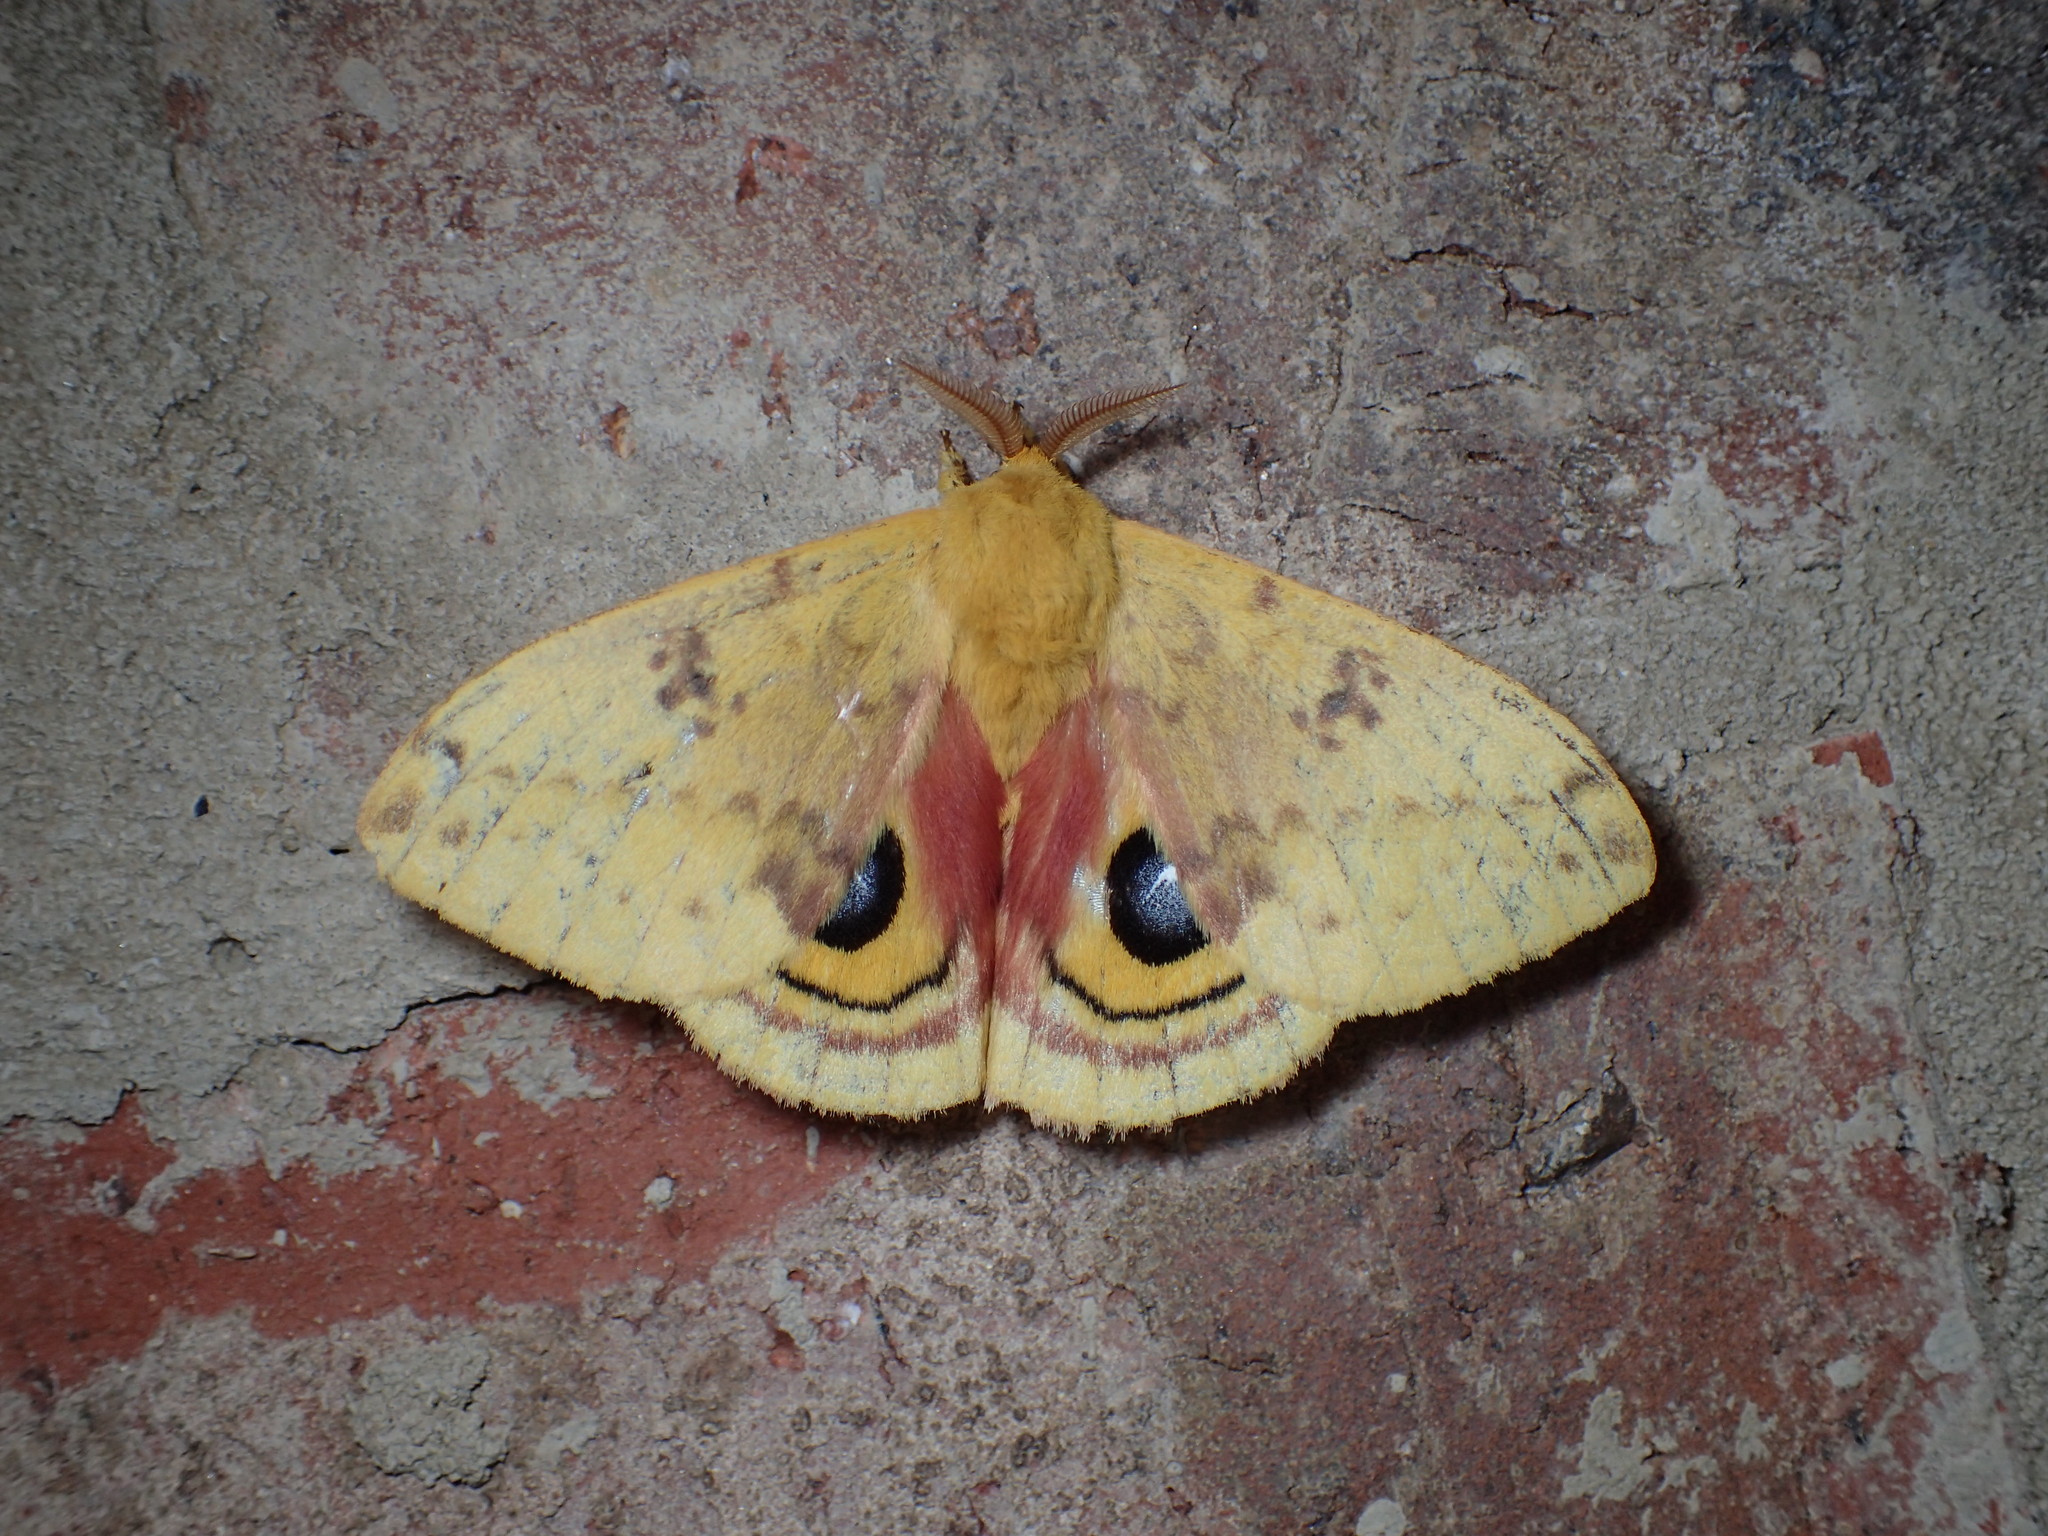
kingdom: Animalia
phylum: Arthropoda
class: Insecta
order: Lepidoptera
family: Saturniidae
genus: Automeris
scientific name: Automeris io
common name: Io moth
